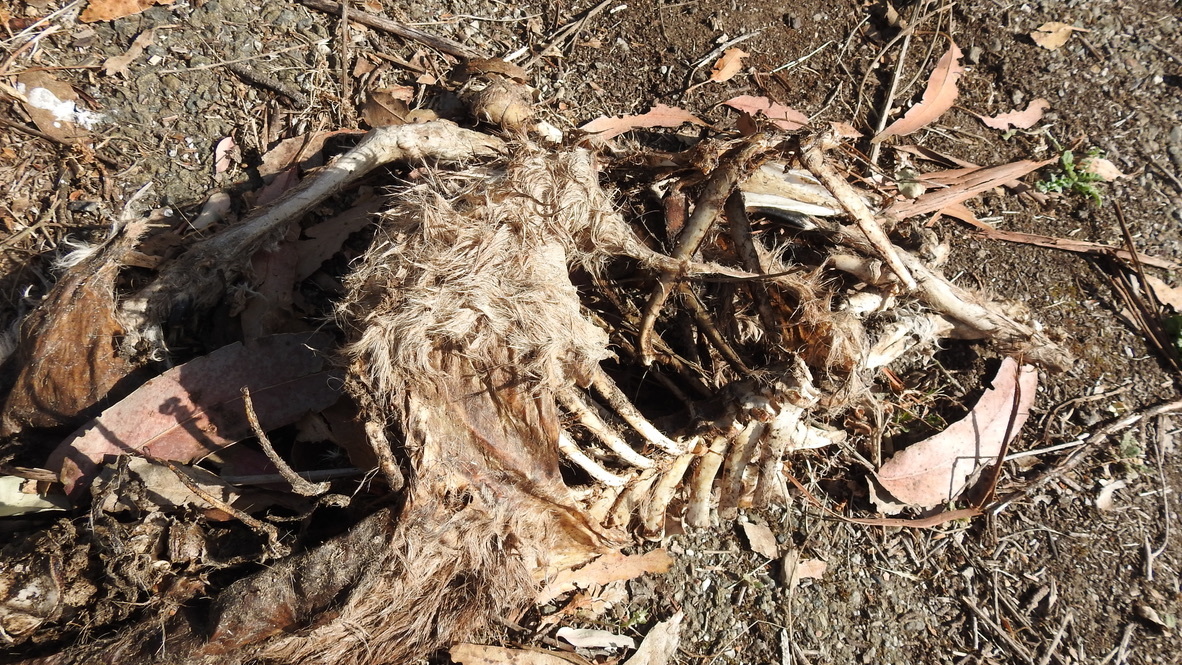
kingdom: Animalia
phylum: Chordata
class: Mammalia
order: Artiodactyla
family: Cervidae
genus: Odocoileus
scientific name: Odocoileus hemionus
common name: Mule deer
